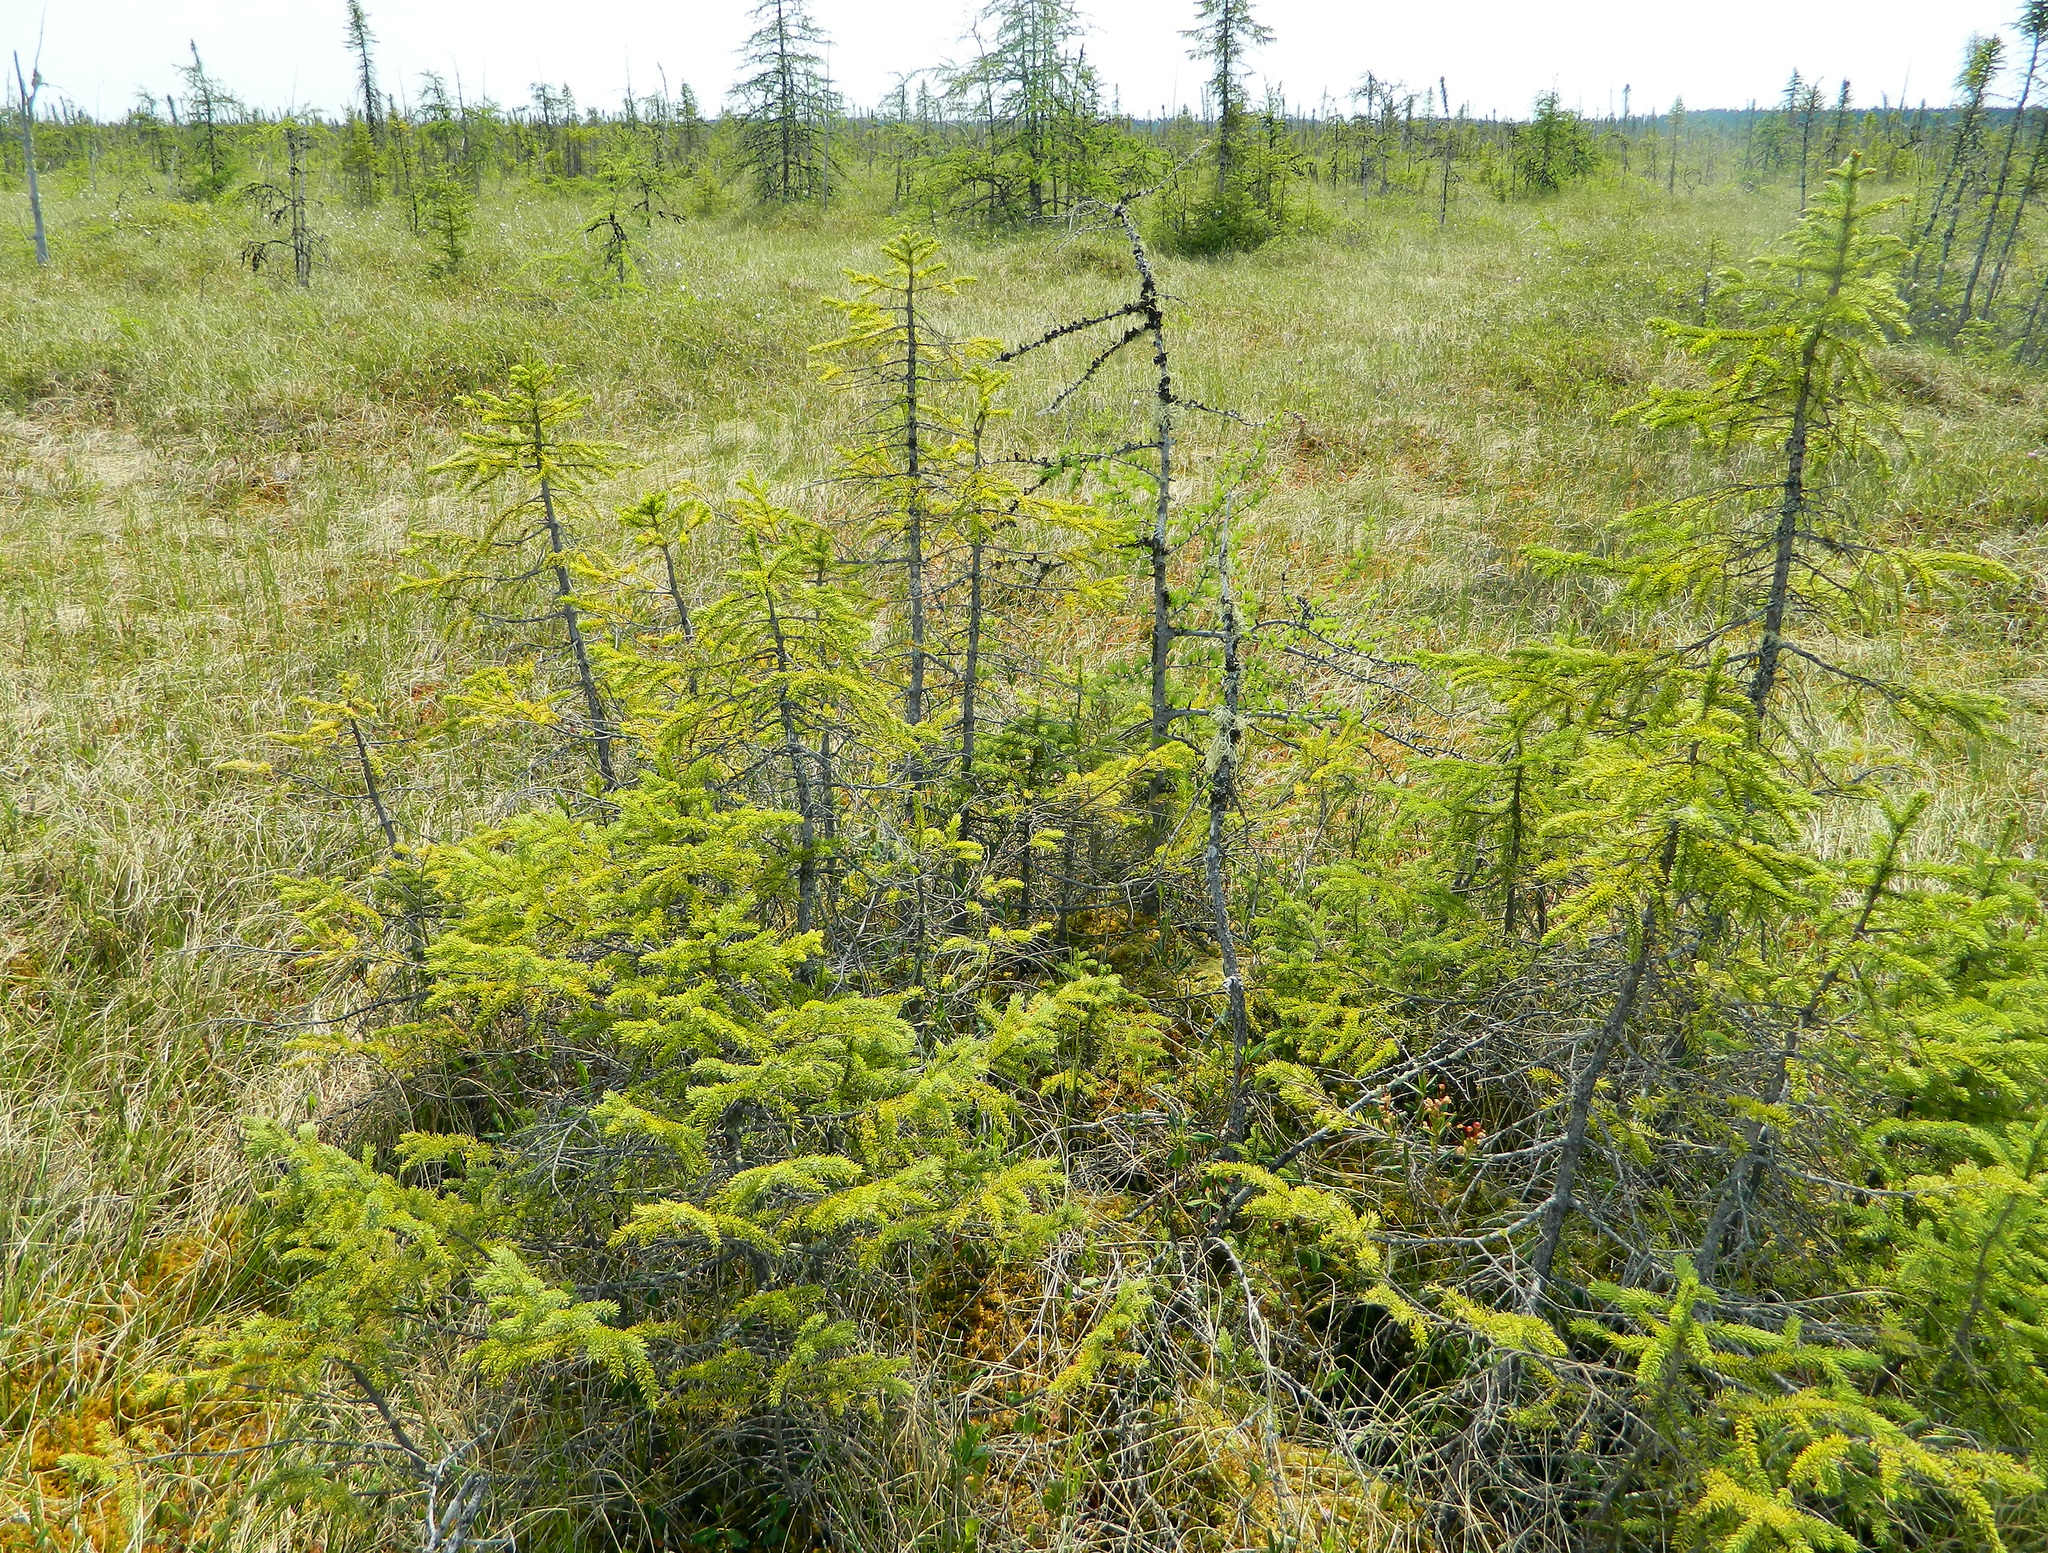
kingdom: Plantae
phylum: Tracheophyta
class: Pinopsida
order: Pinales
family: Pinaceae
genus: Picea
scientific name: Picea mariana
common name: Black spruce
